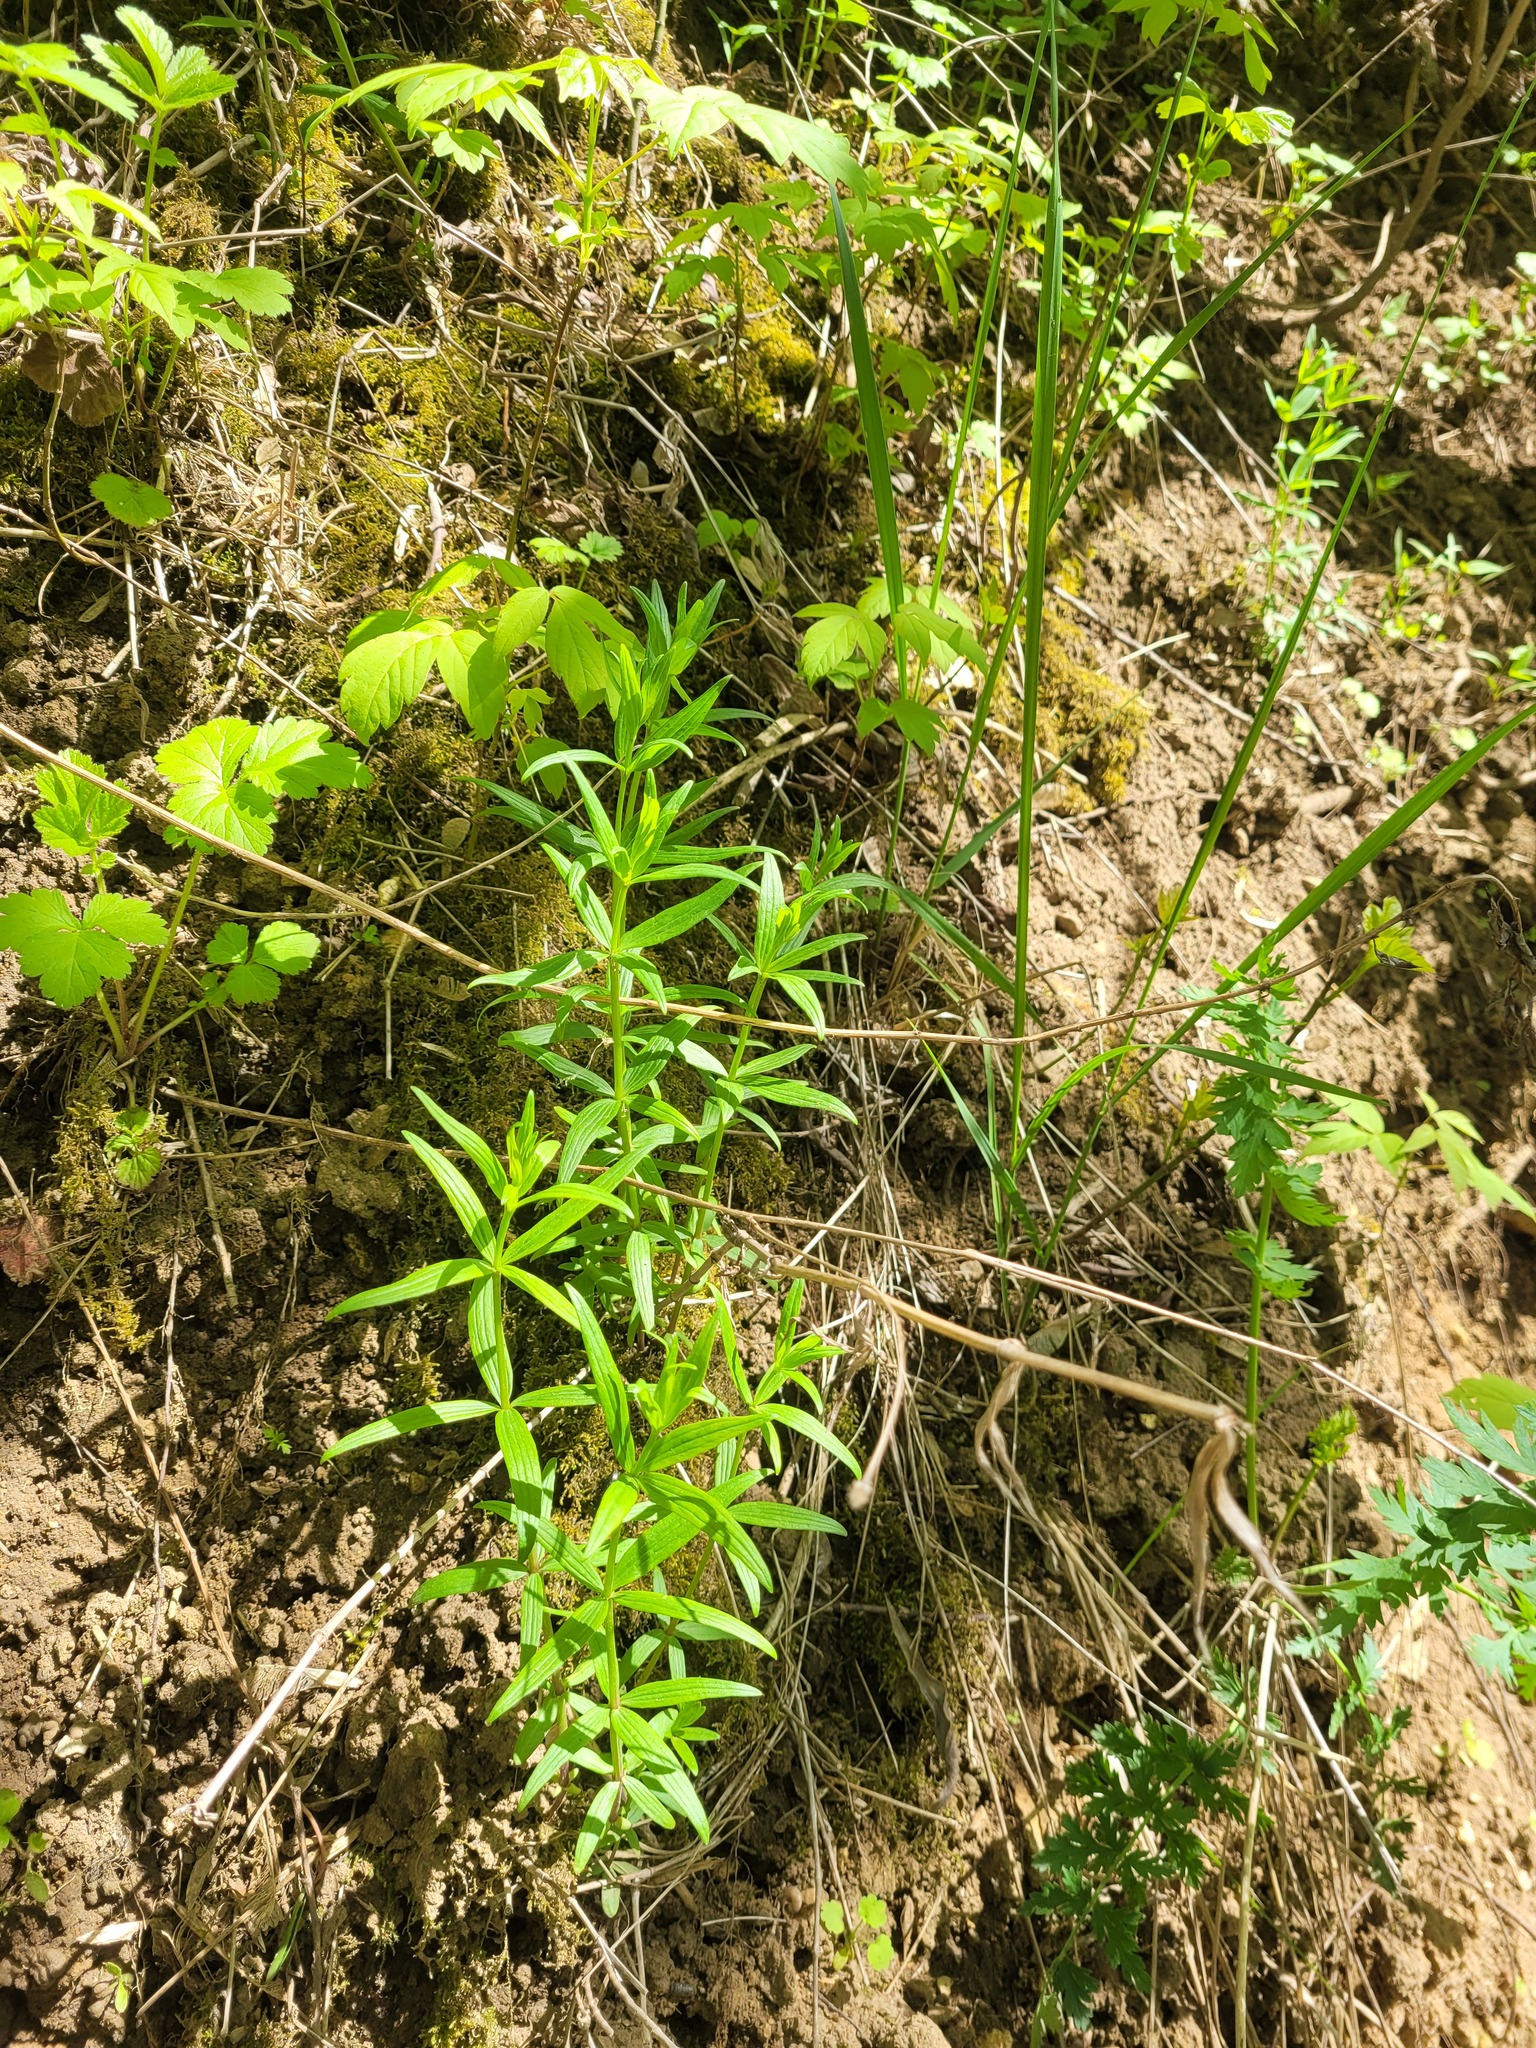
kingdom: Plantae
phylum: Tracheophyta
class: Magnoliopsida
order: Gentianales
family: Rubiaceae
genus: Galium
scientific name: Galium rubioides
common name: European bedstraw
